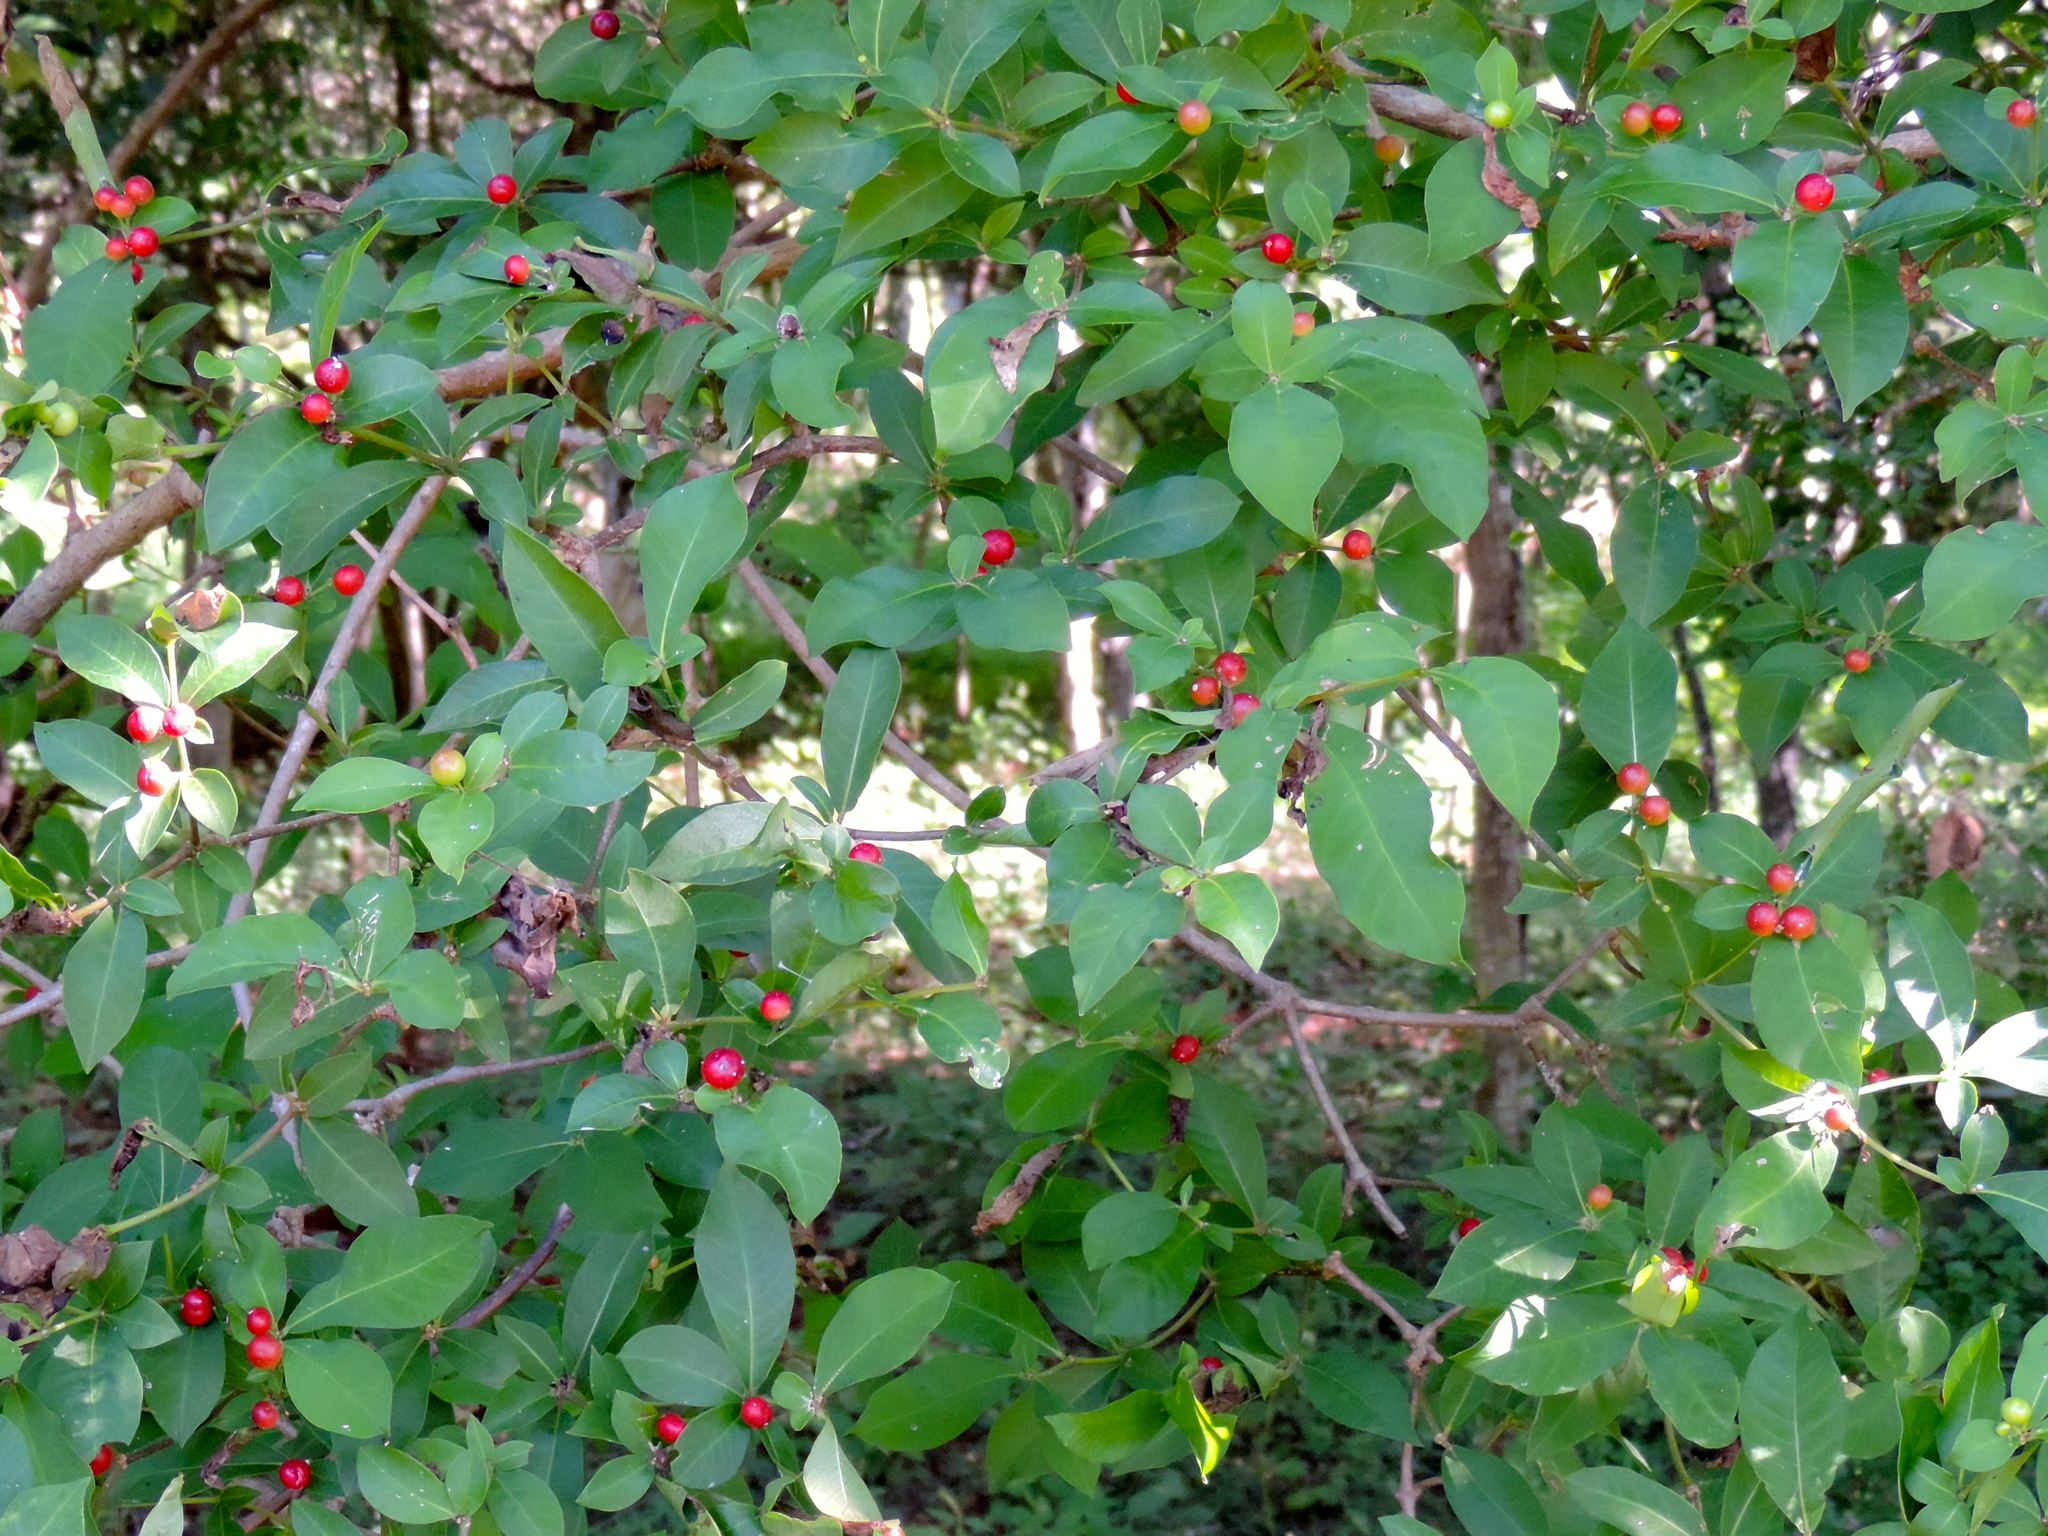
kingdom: Plantae
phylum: Tracheophyta
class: Magnoliopsida
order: Gentianales
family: Apocynaceae
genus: Rauvolfia
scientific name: Rauvolfia tetraphylla
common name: Four-leaf devil-pepper
